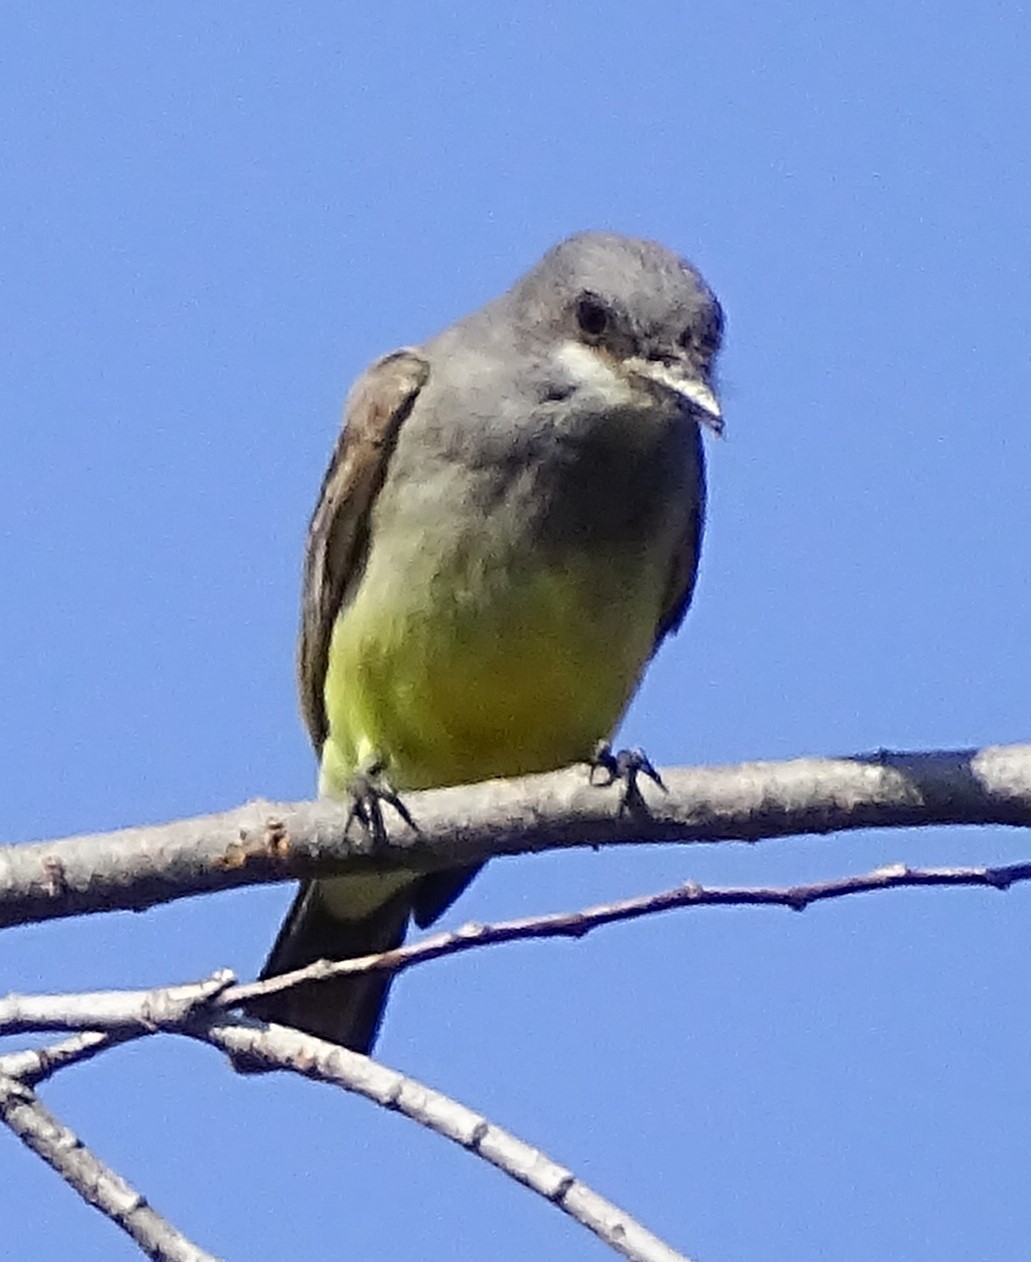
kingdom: Animalia
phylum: Chordata
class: Aves
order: Passeriformes
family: Tyrannidae
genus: Tyrannus
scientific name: Tyrannus vociferans
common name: Cassin's kingbird
